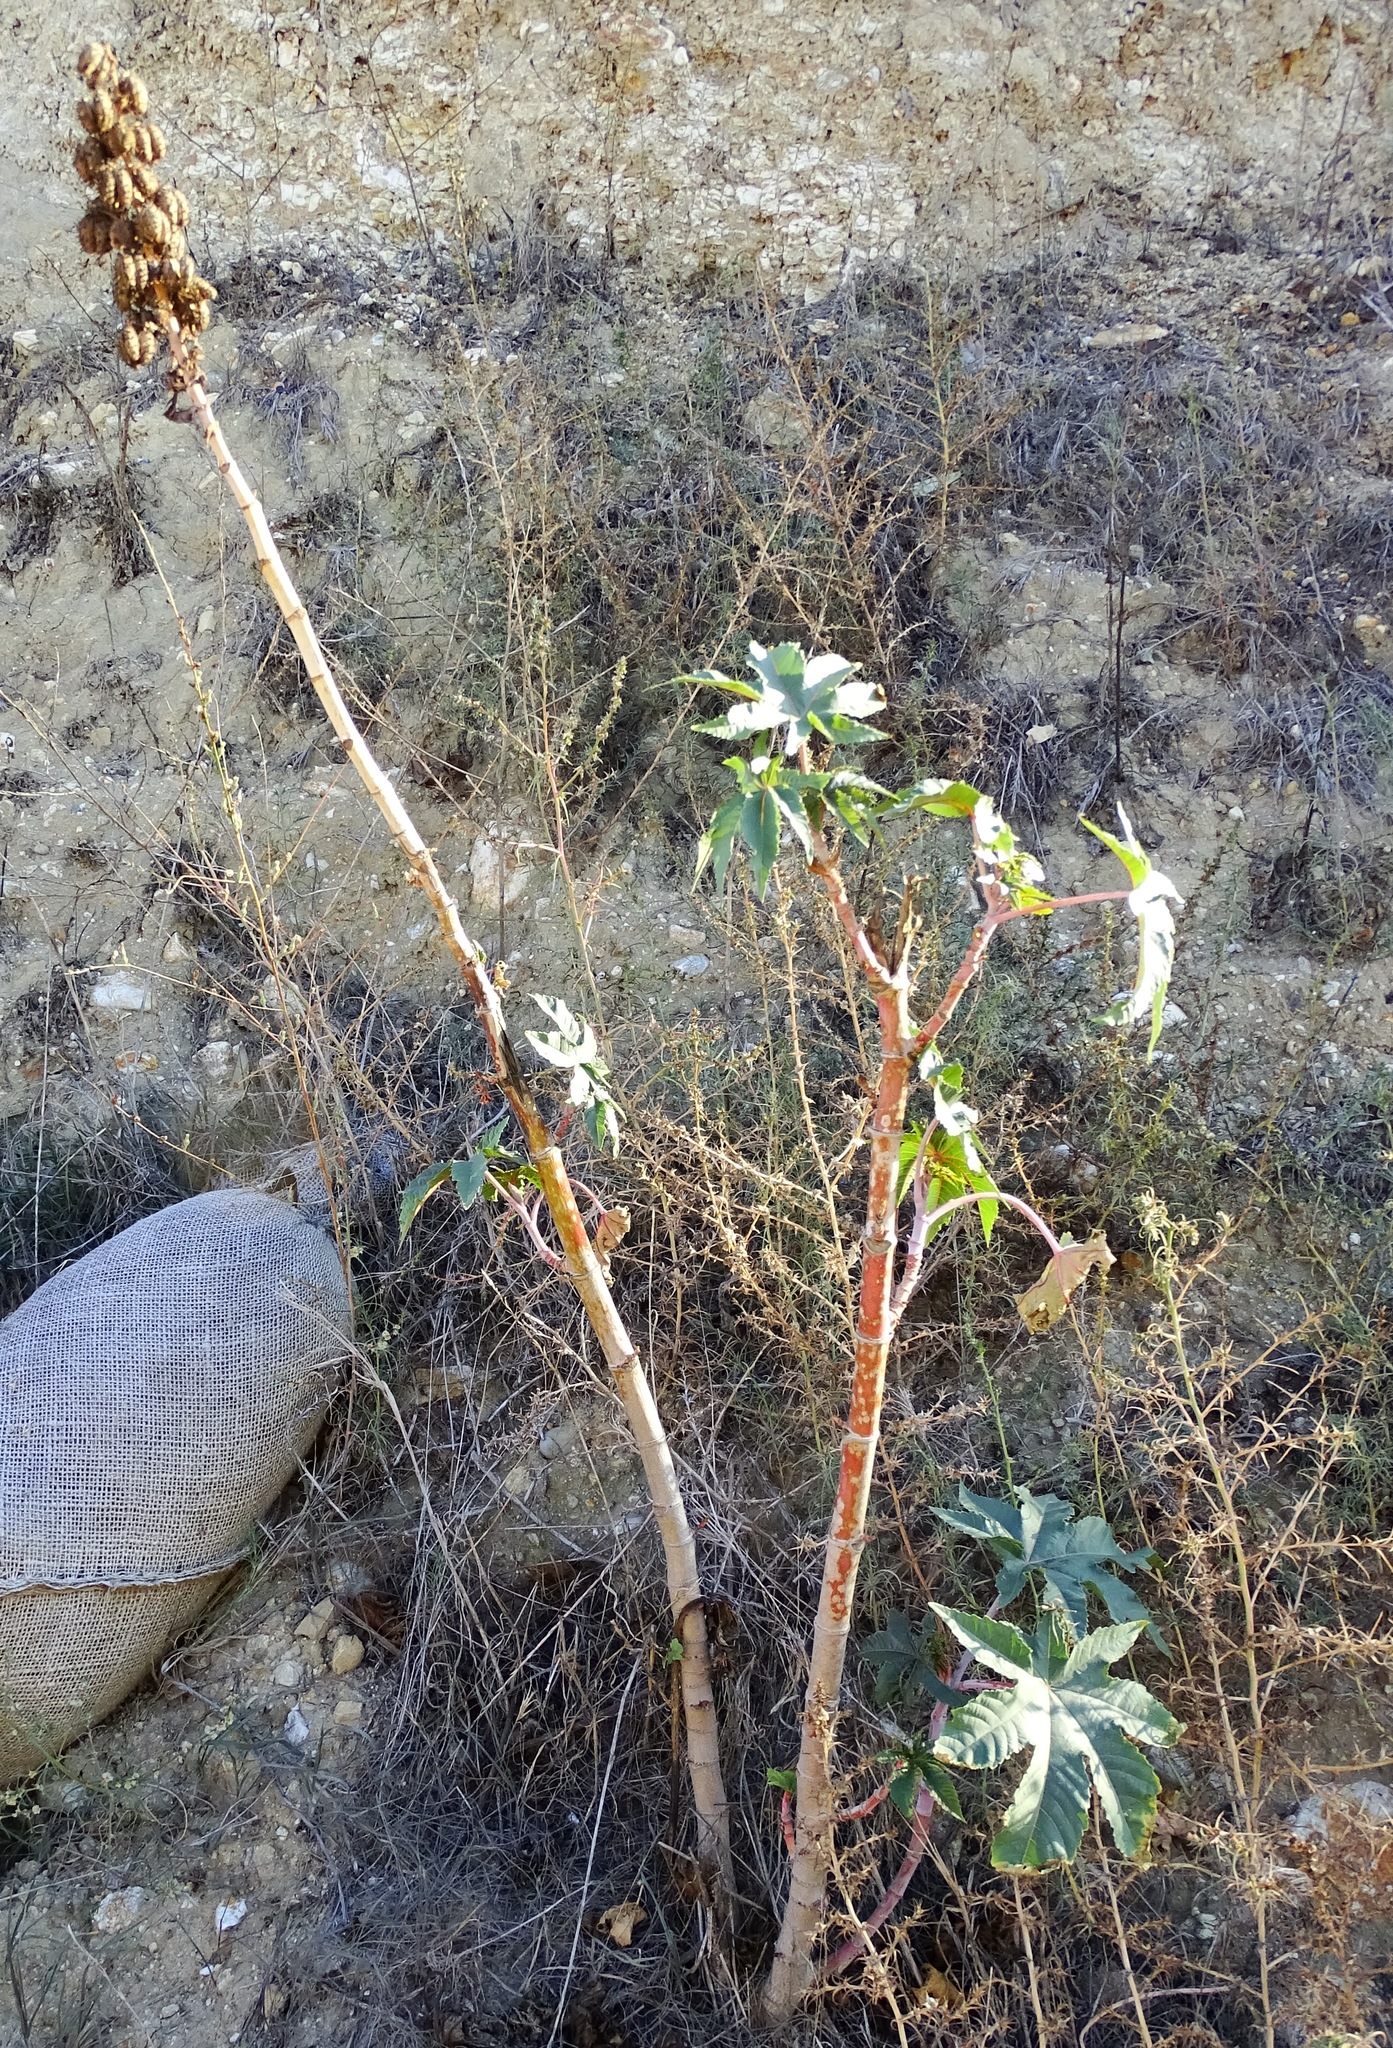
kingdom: Plantae
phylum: Tracheophyta
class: Magnoliopsida
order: Malpighiales
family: Euphorbiaceae
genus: Ricinus
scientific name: Ricinus communis
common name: Castor-oil-plant
